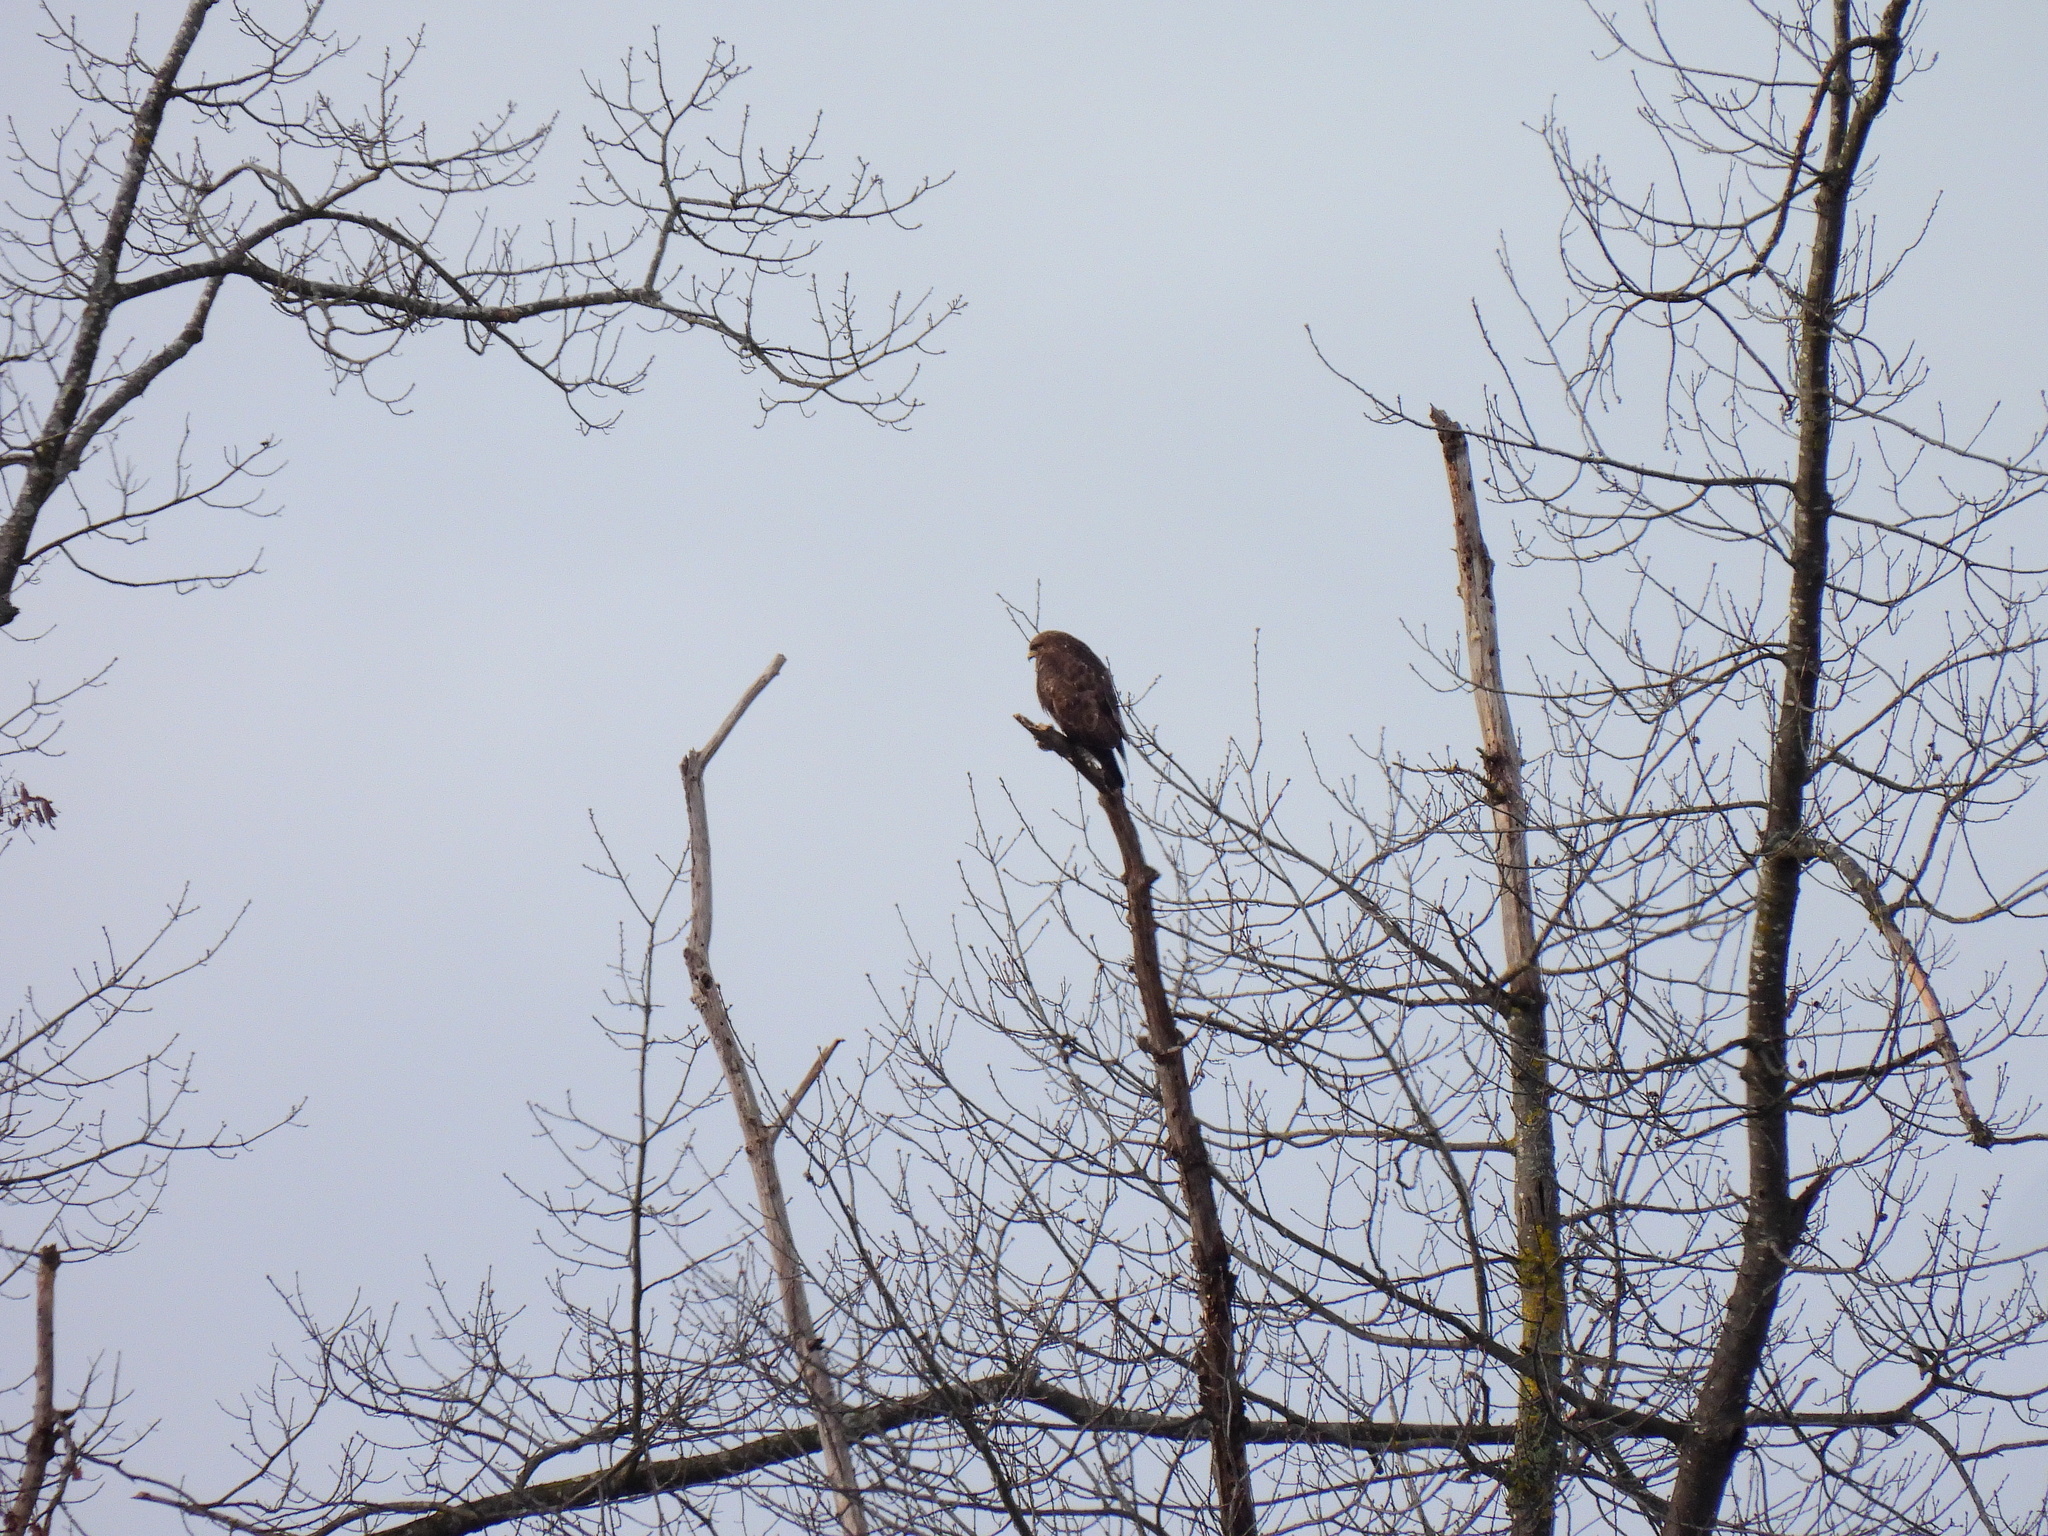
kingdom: Animalia
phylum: Chordata
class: Aves
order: Accipitriformes
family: Accipitridae
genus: Buteo
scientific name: Buteo buteo
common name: Common buzzard
